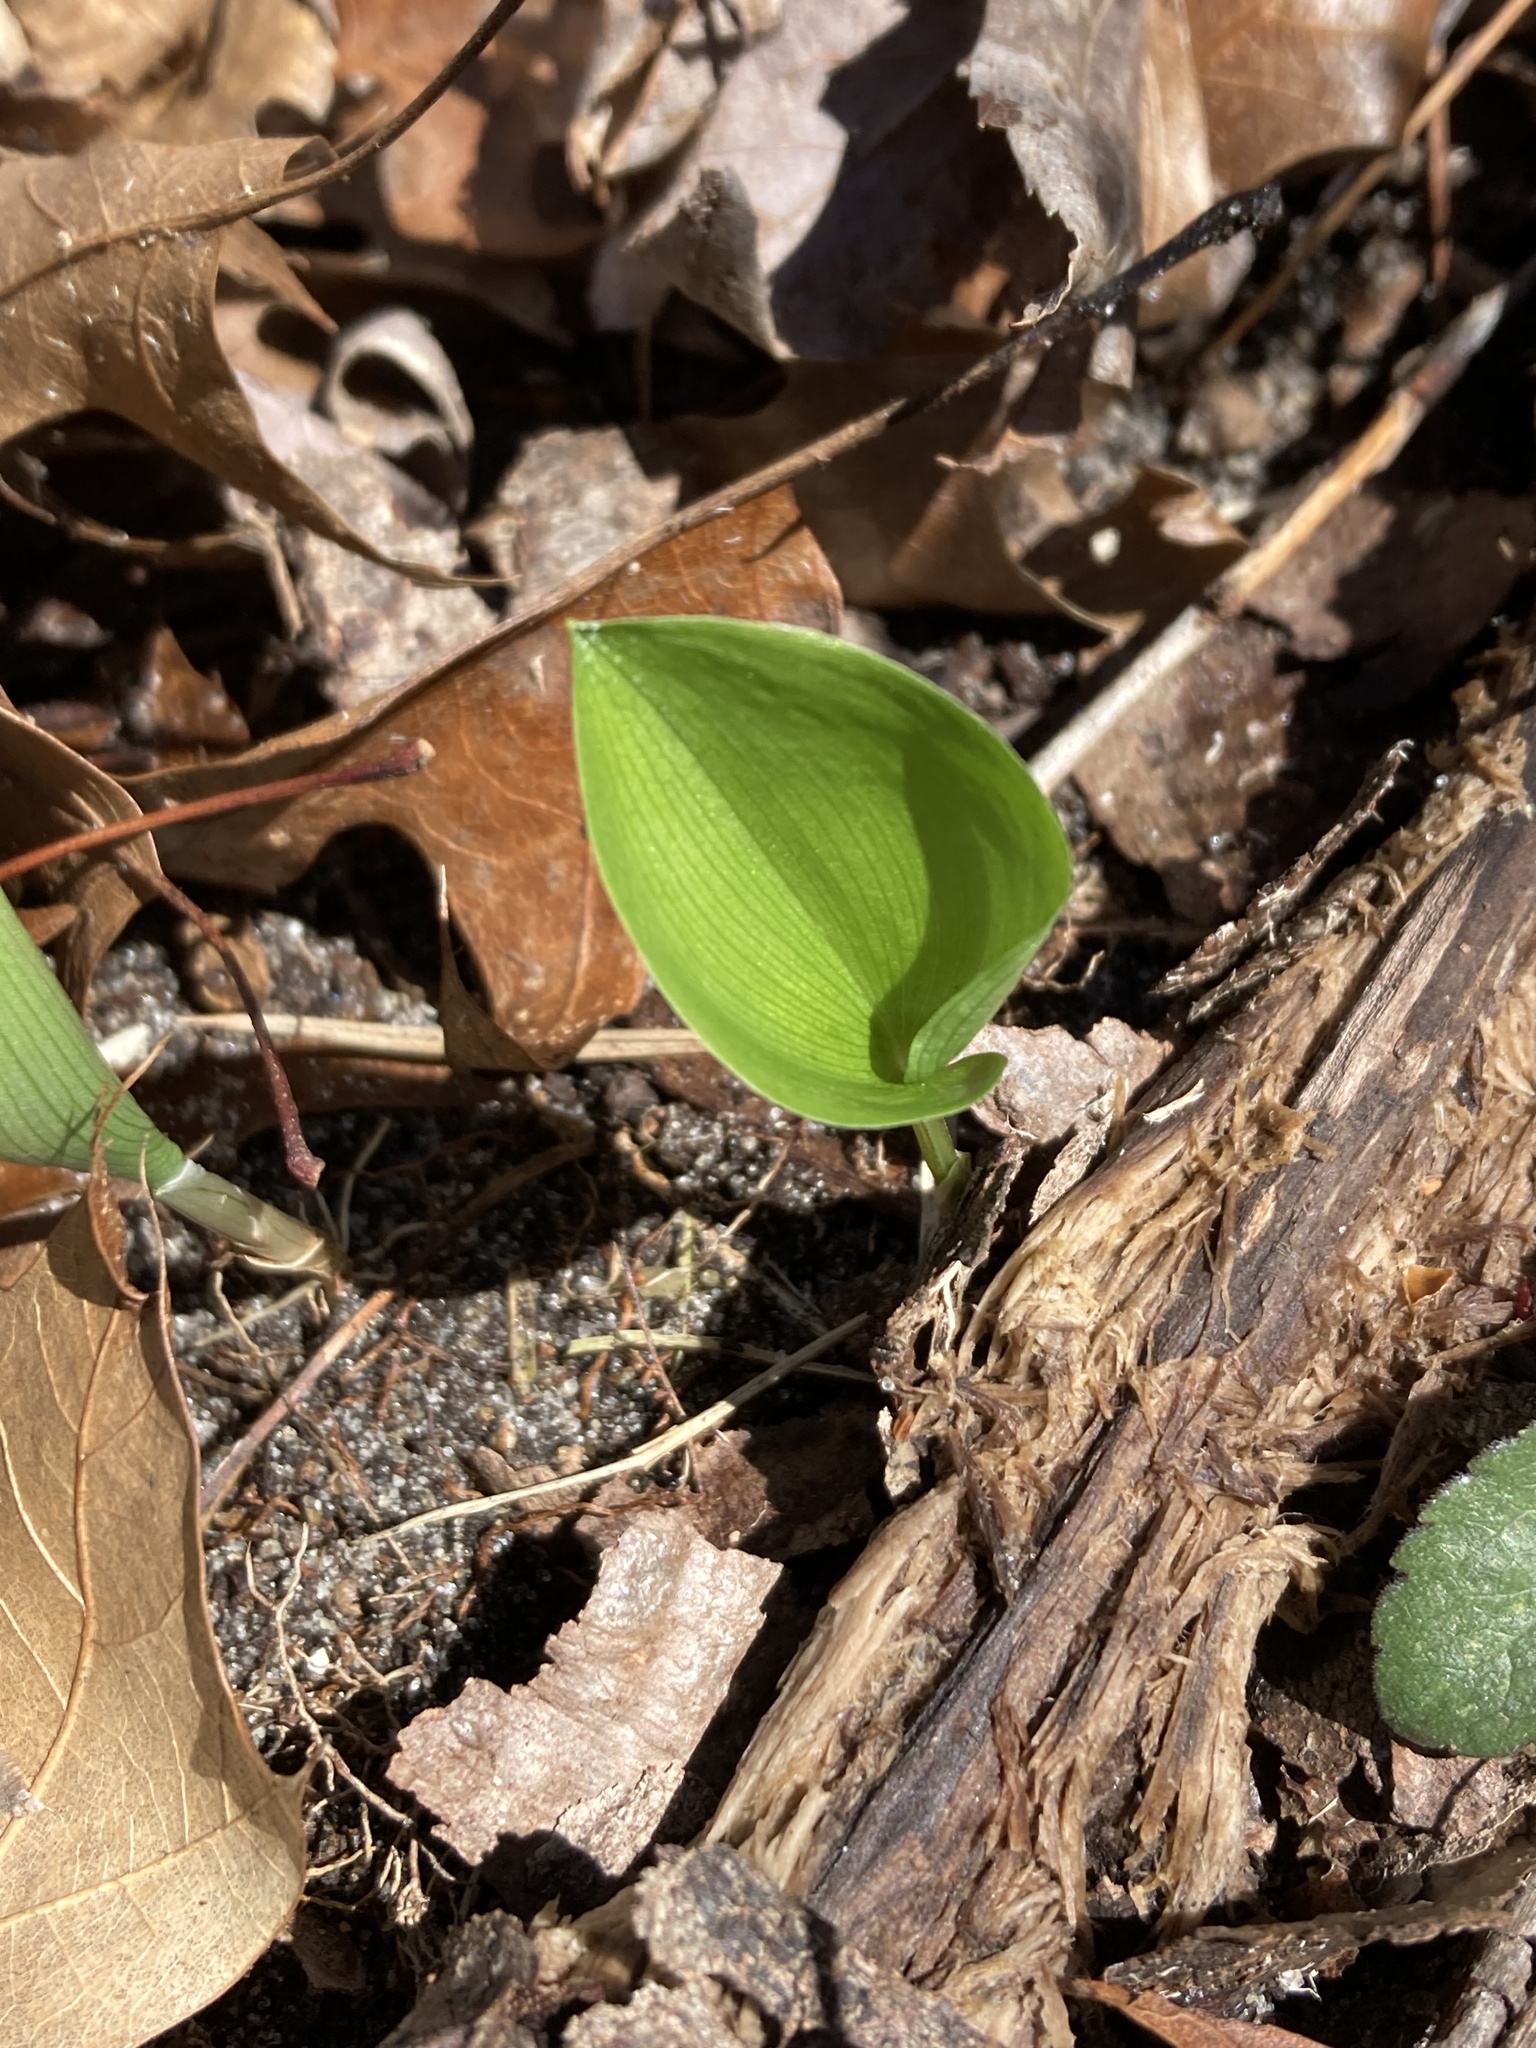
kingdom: Plantae
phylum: Tracheophyta
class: Liliopsida
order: Asparagales
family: Asparagaceae
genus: Maianthemum
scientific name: Maianthemum canadense
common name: False lily-of-the-valley
